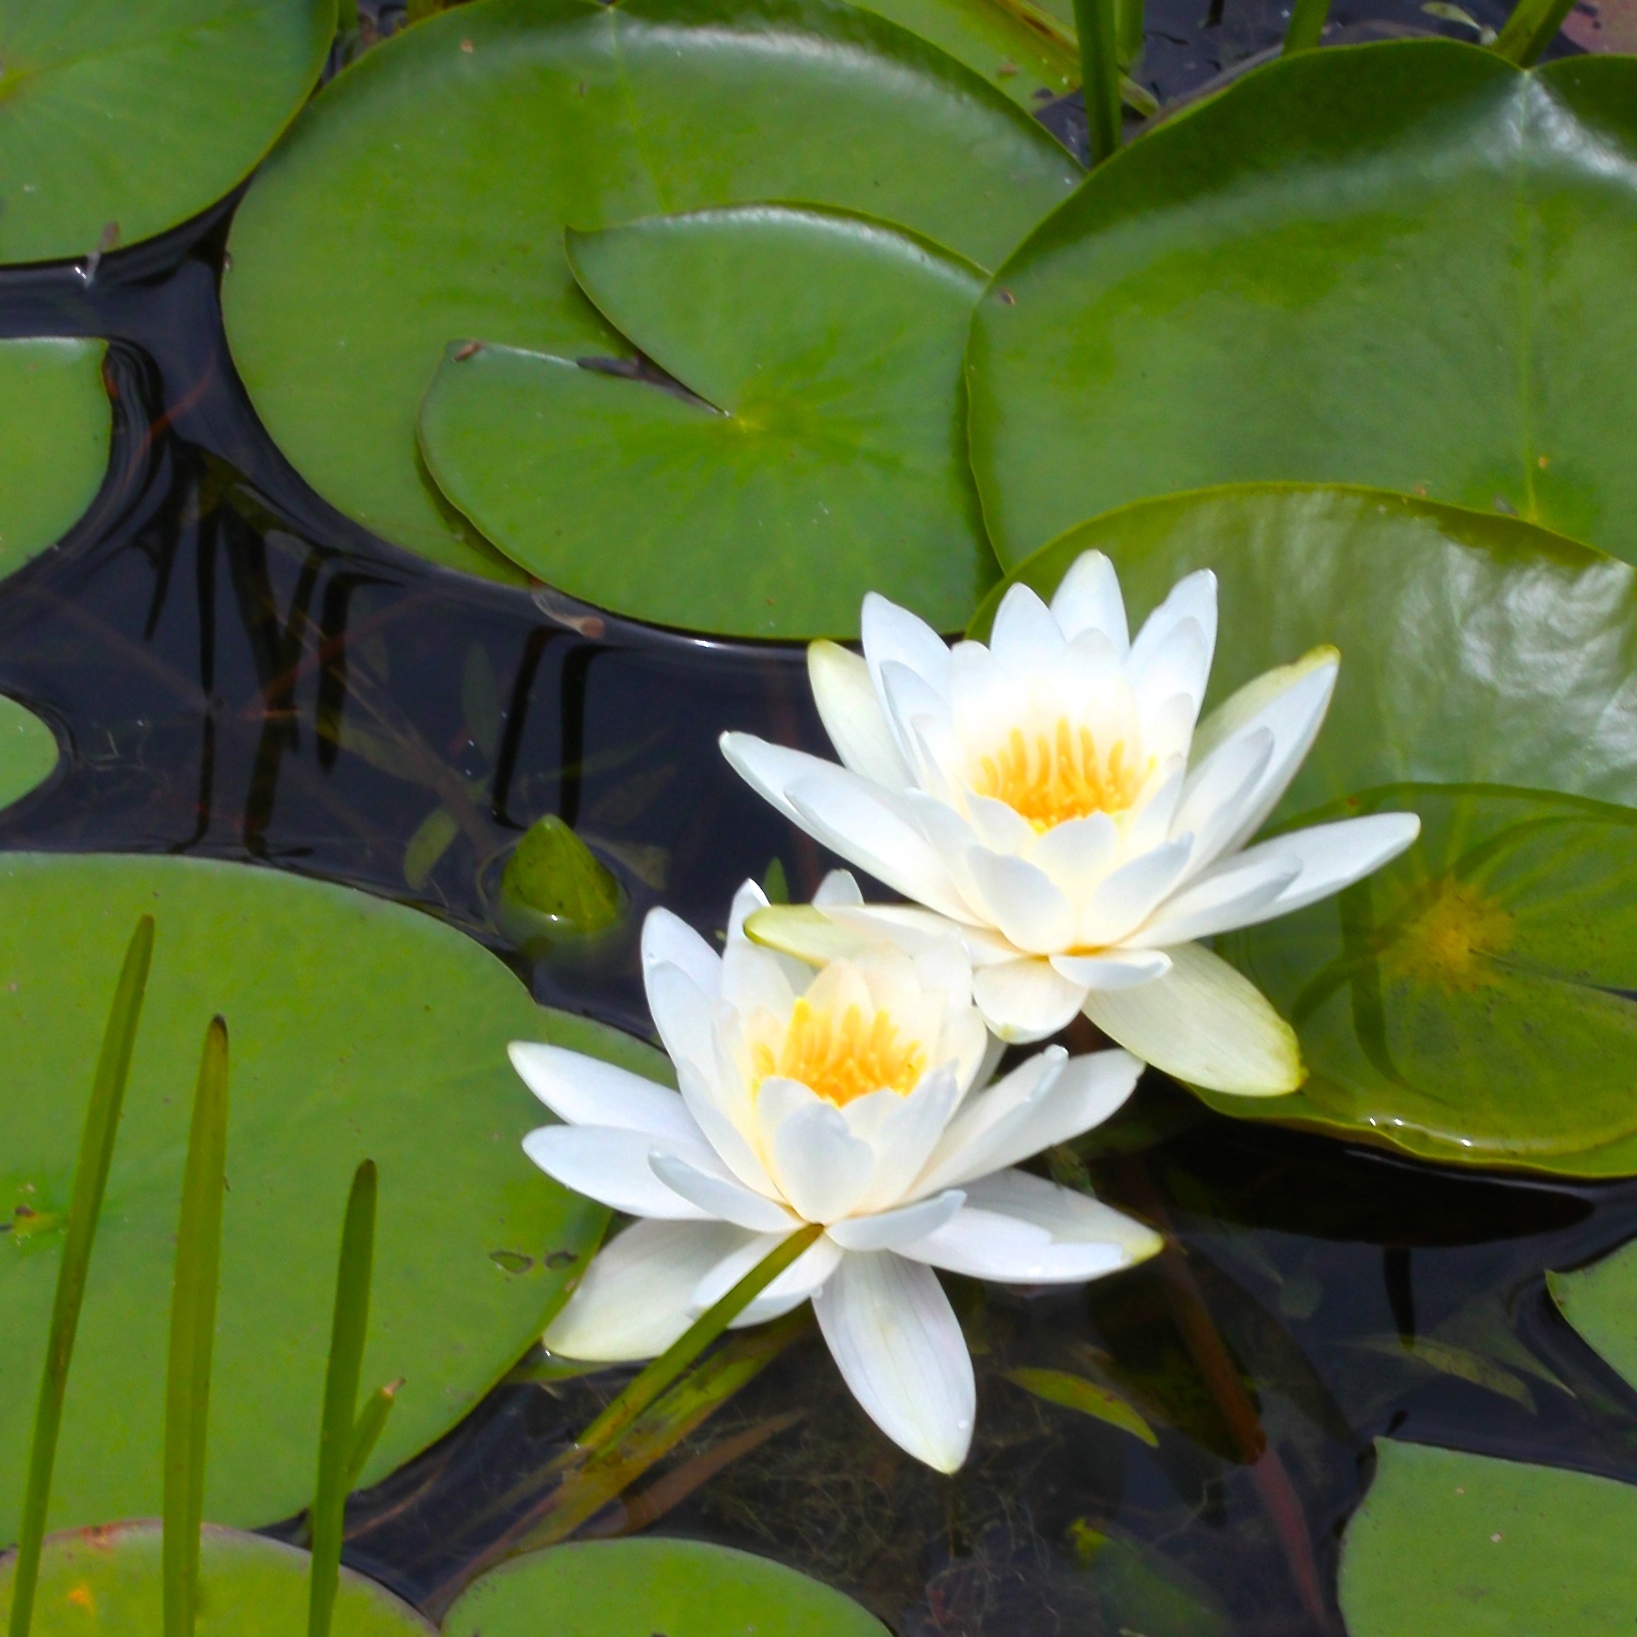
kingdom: Plantae
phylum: Tracheophyta
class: Magnoliopsida
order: Nymphaeales
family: Nymphaeaceae
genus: Nymphaea
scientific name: Nymphaea odorata
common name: Fragrant water-lily
